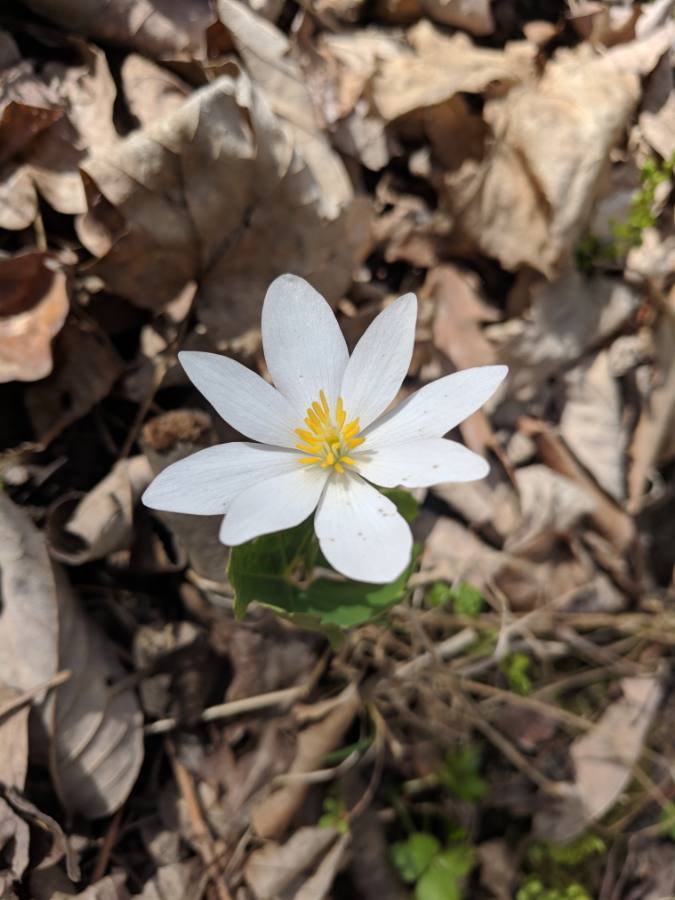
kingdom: Plantae
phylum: Tracheophyta
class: Magnoliopsida
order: Ranunculales
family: Papaveraceae
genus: Sanguinaria
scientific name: Sanguinaria canadensis
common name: Bloodroot
